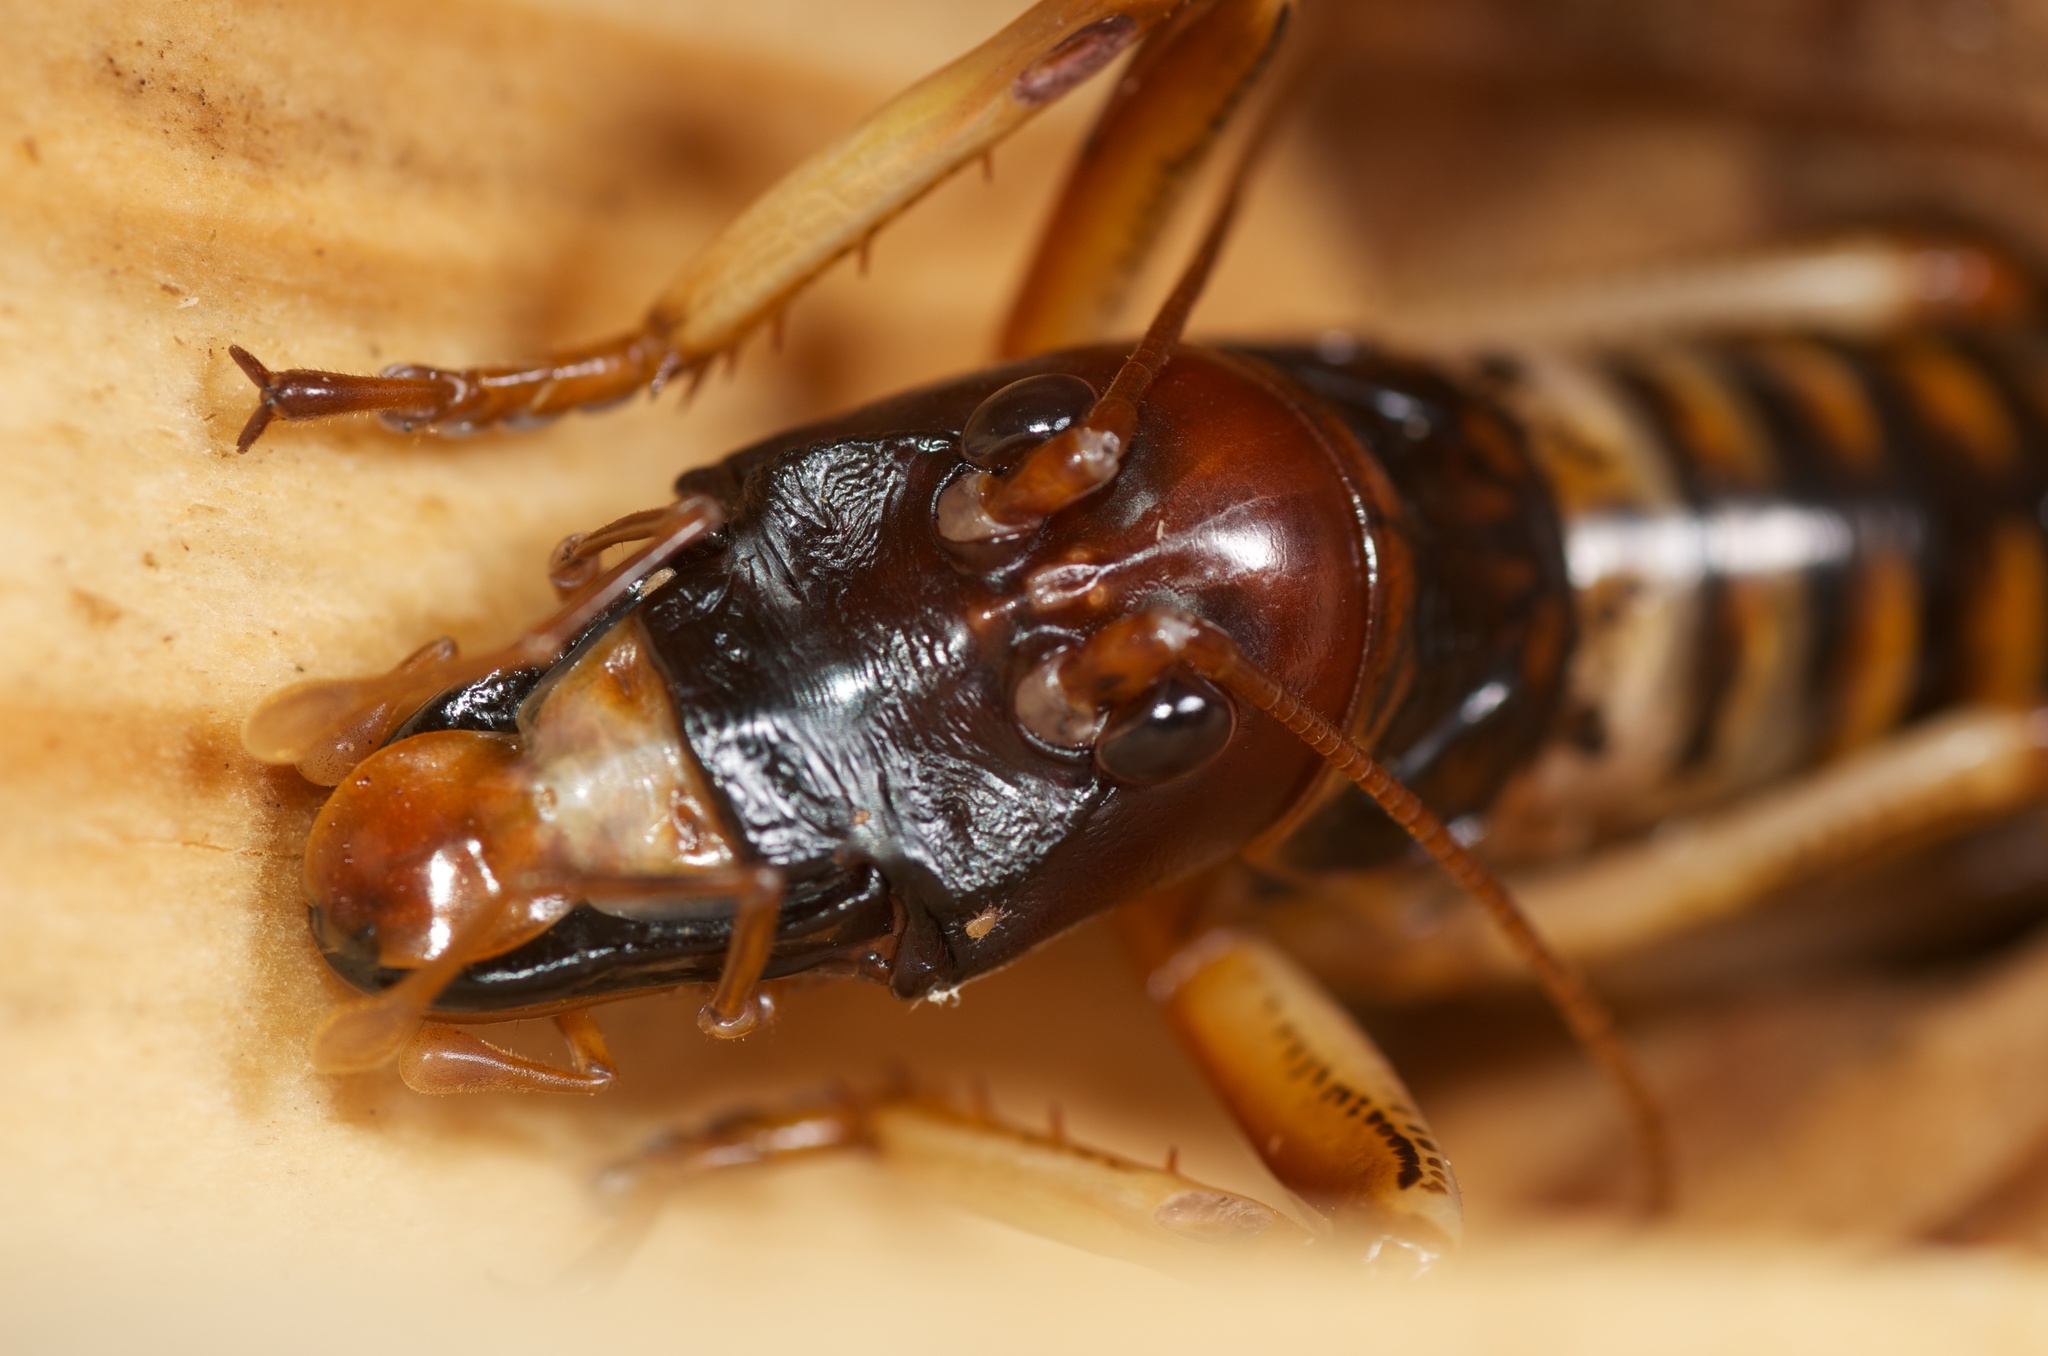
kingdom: Animalia
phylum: Arthropoda
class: Insecta
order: Orthoptera
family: Anostostomatidae
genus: Hemideina
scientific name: Hemideina crassidens
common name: Wellington tree weta
